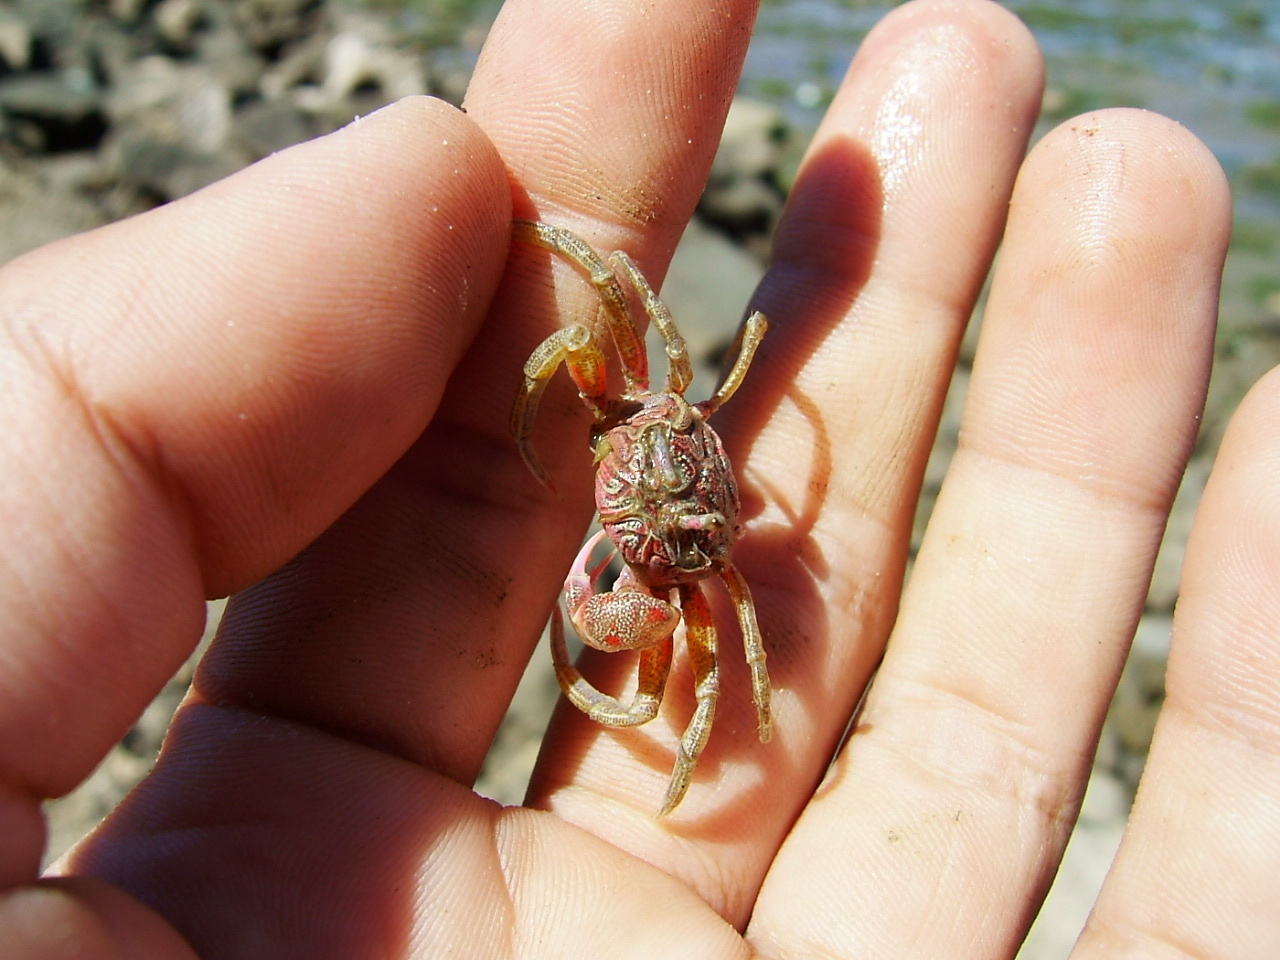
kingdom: Animalia
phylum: Arthropoda
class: Malacostraca
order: Decapoda
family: Dotillidae
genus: Dotilla
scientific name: Dotilla fenestrata
